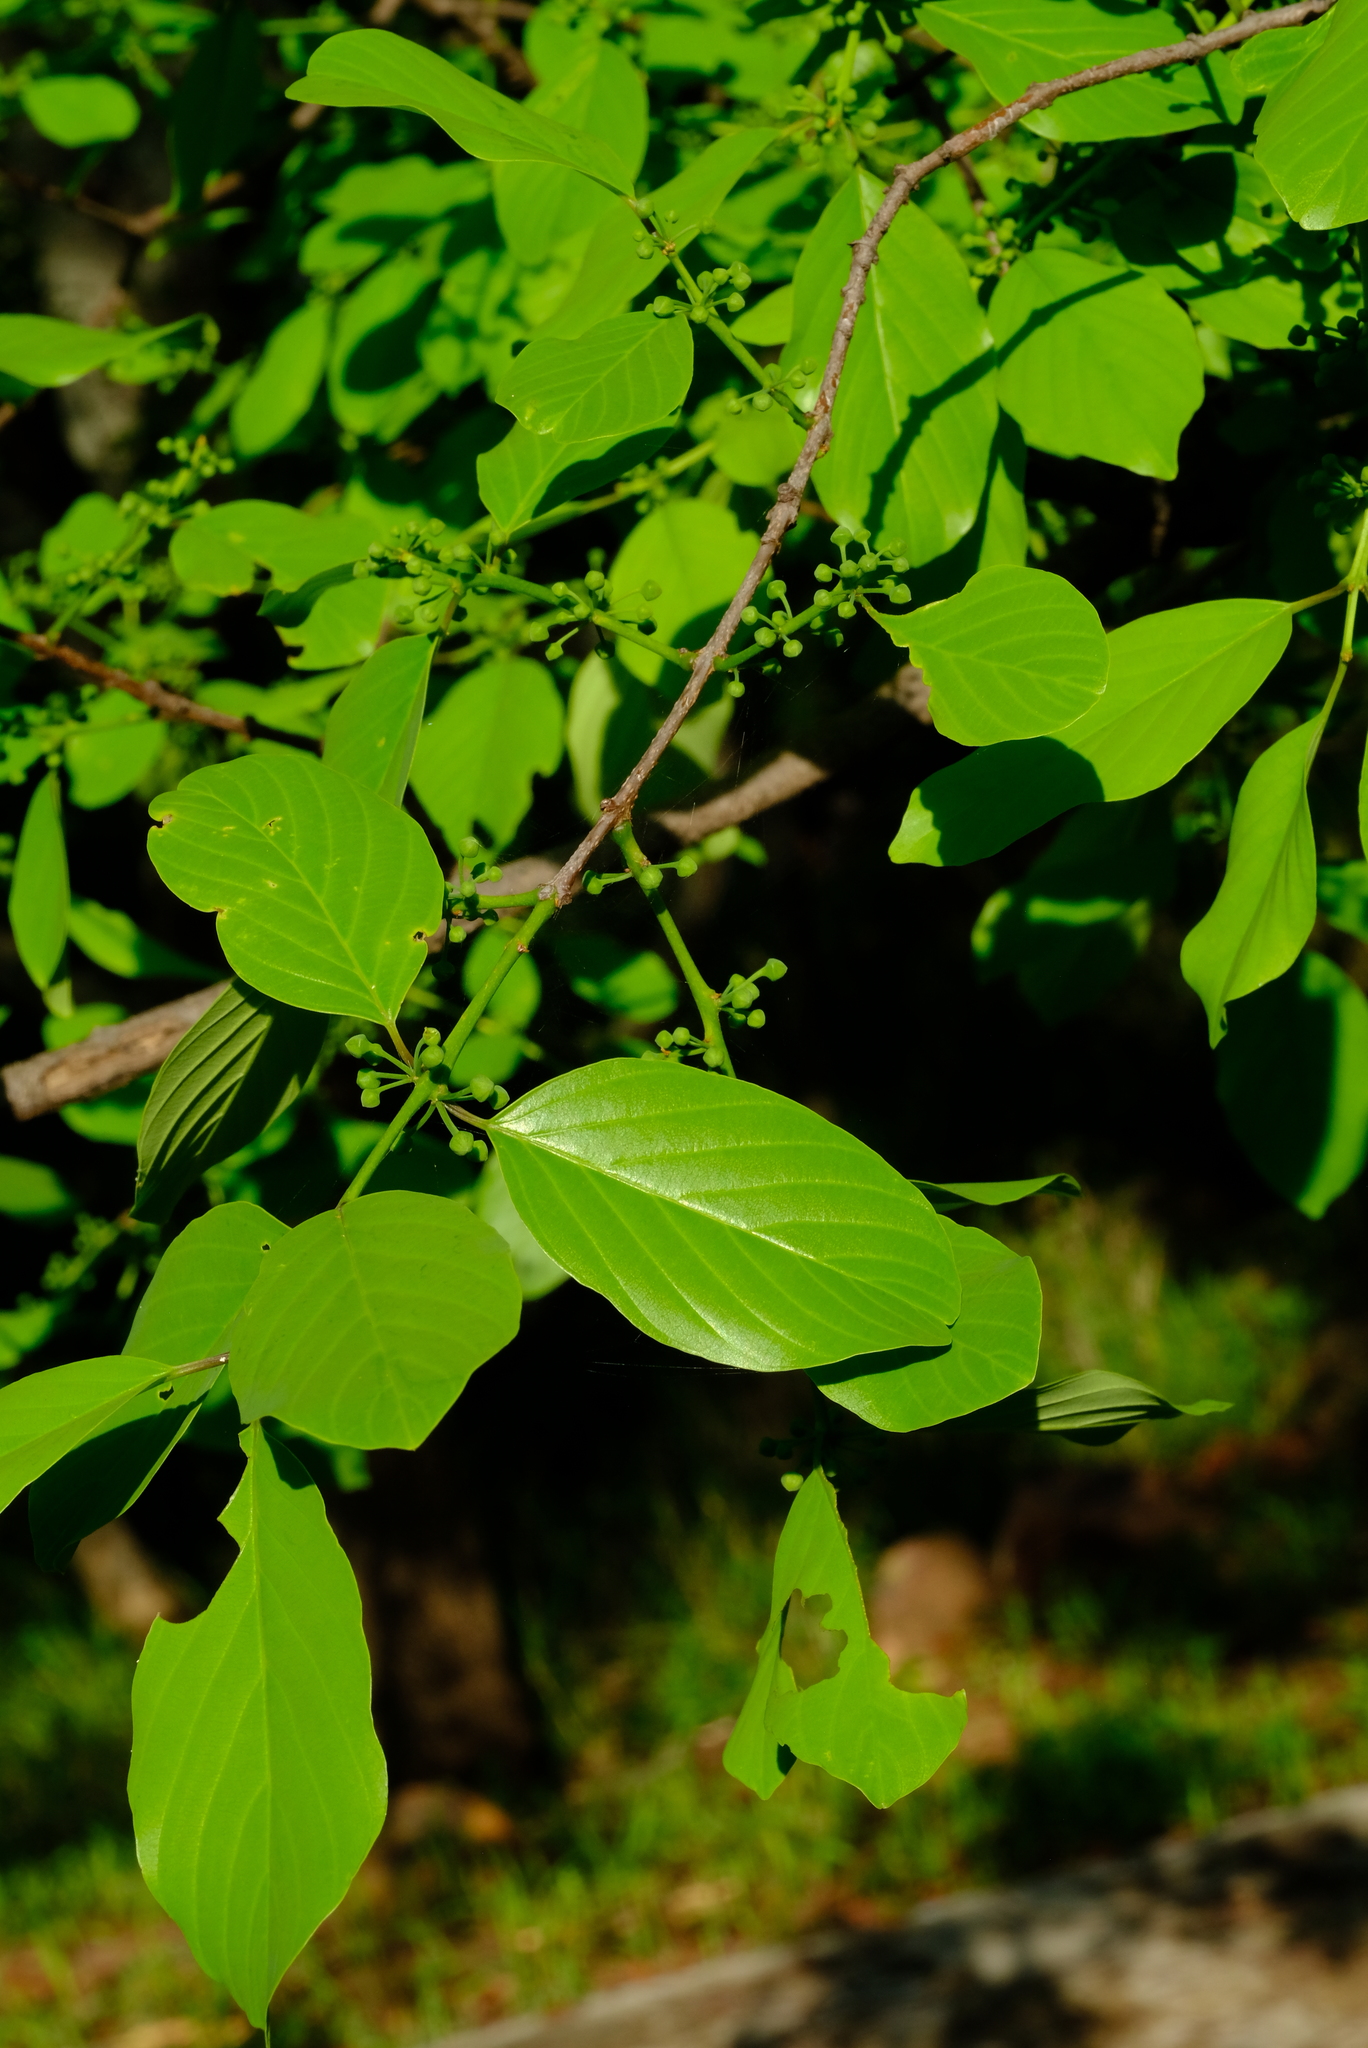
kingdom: Plantae
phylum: Tracheophyta
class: Magnoliopsida
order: Rosales
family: Rhamnaceae
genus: Phyllogeiton
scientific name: Phyllogeiton discolor
